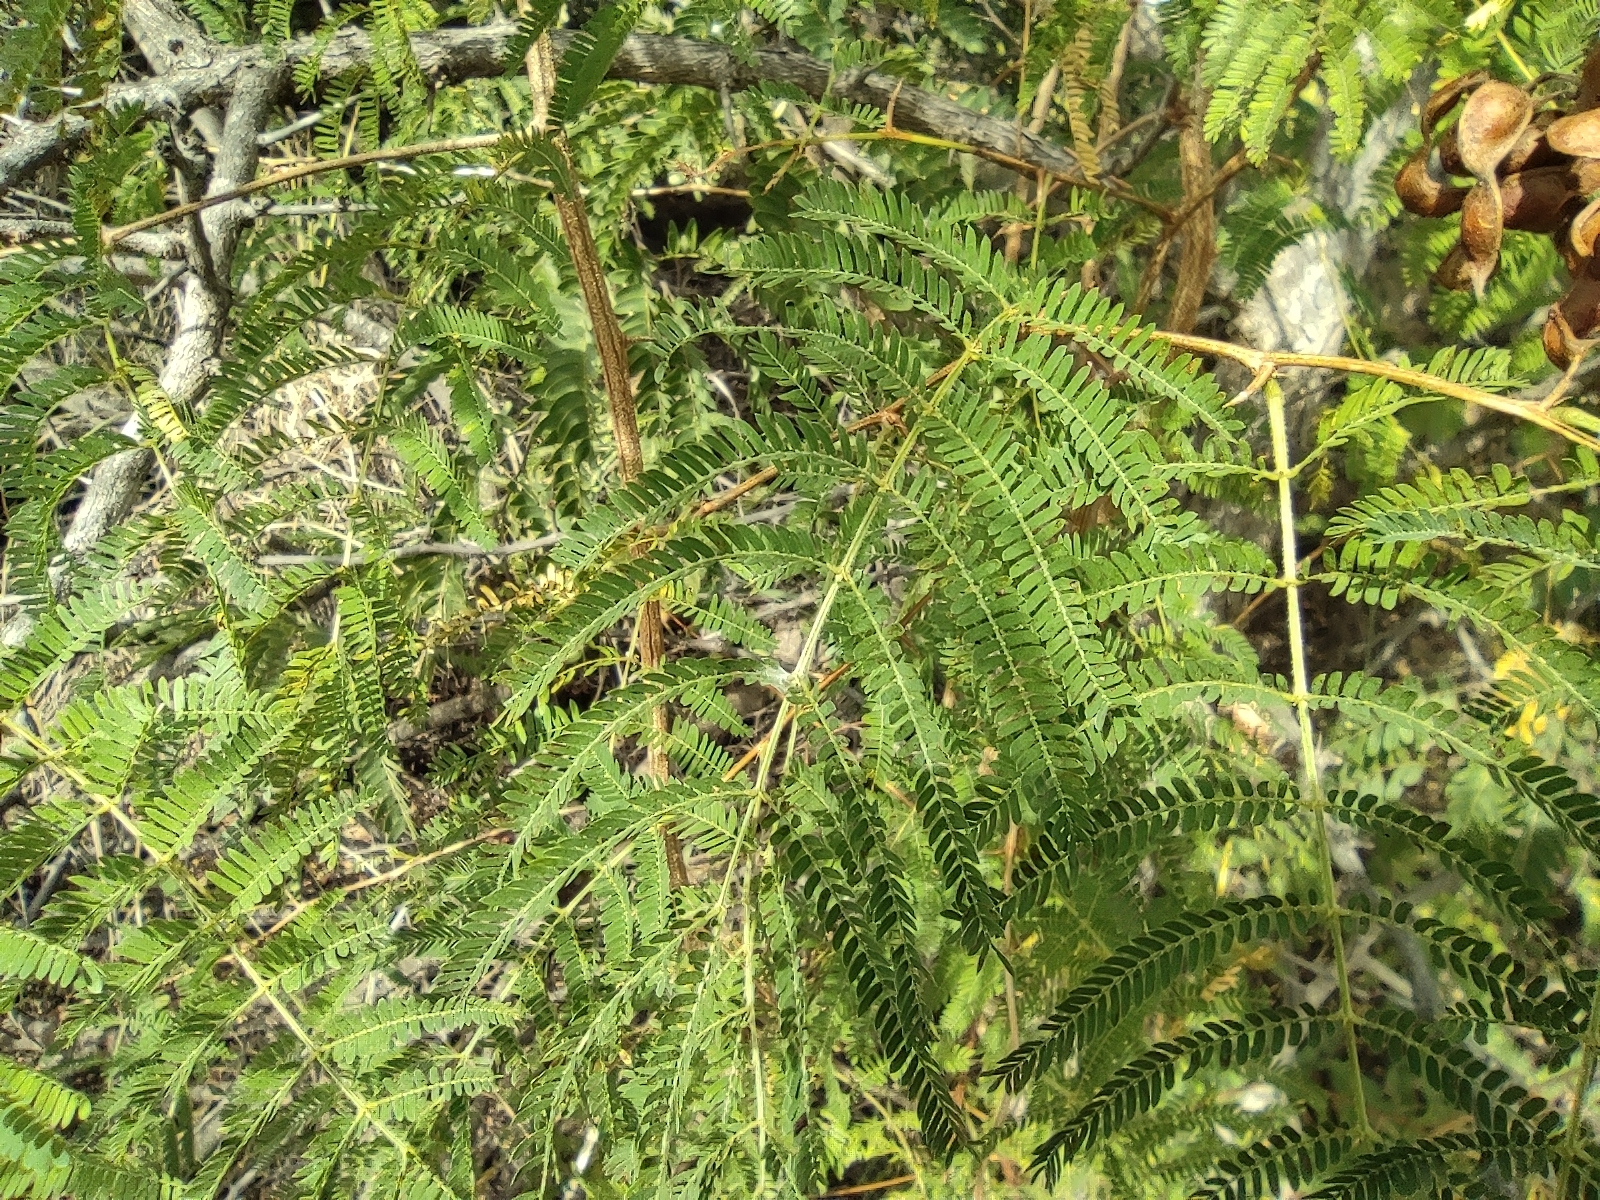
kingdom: Plantae
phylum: Tracheophyta
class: Magnoliopsida
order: Fabales
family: Fabaceae
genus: Dichrostachys
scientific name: Dichrostachys cinerea
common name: Sicklebush
